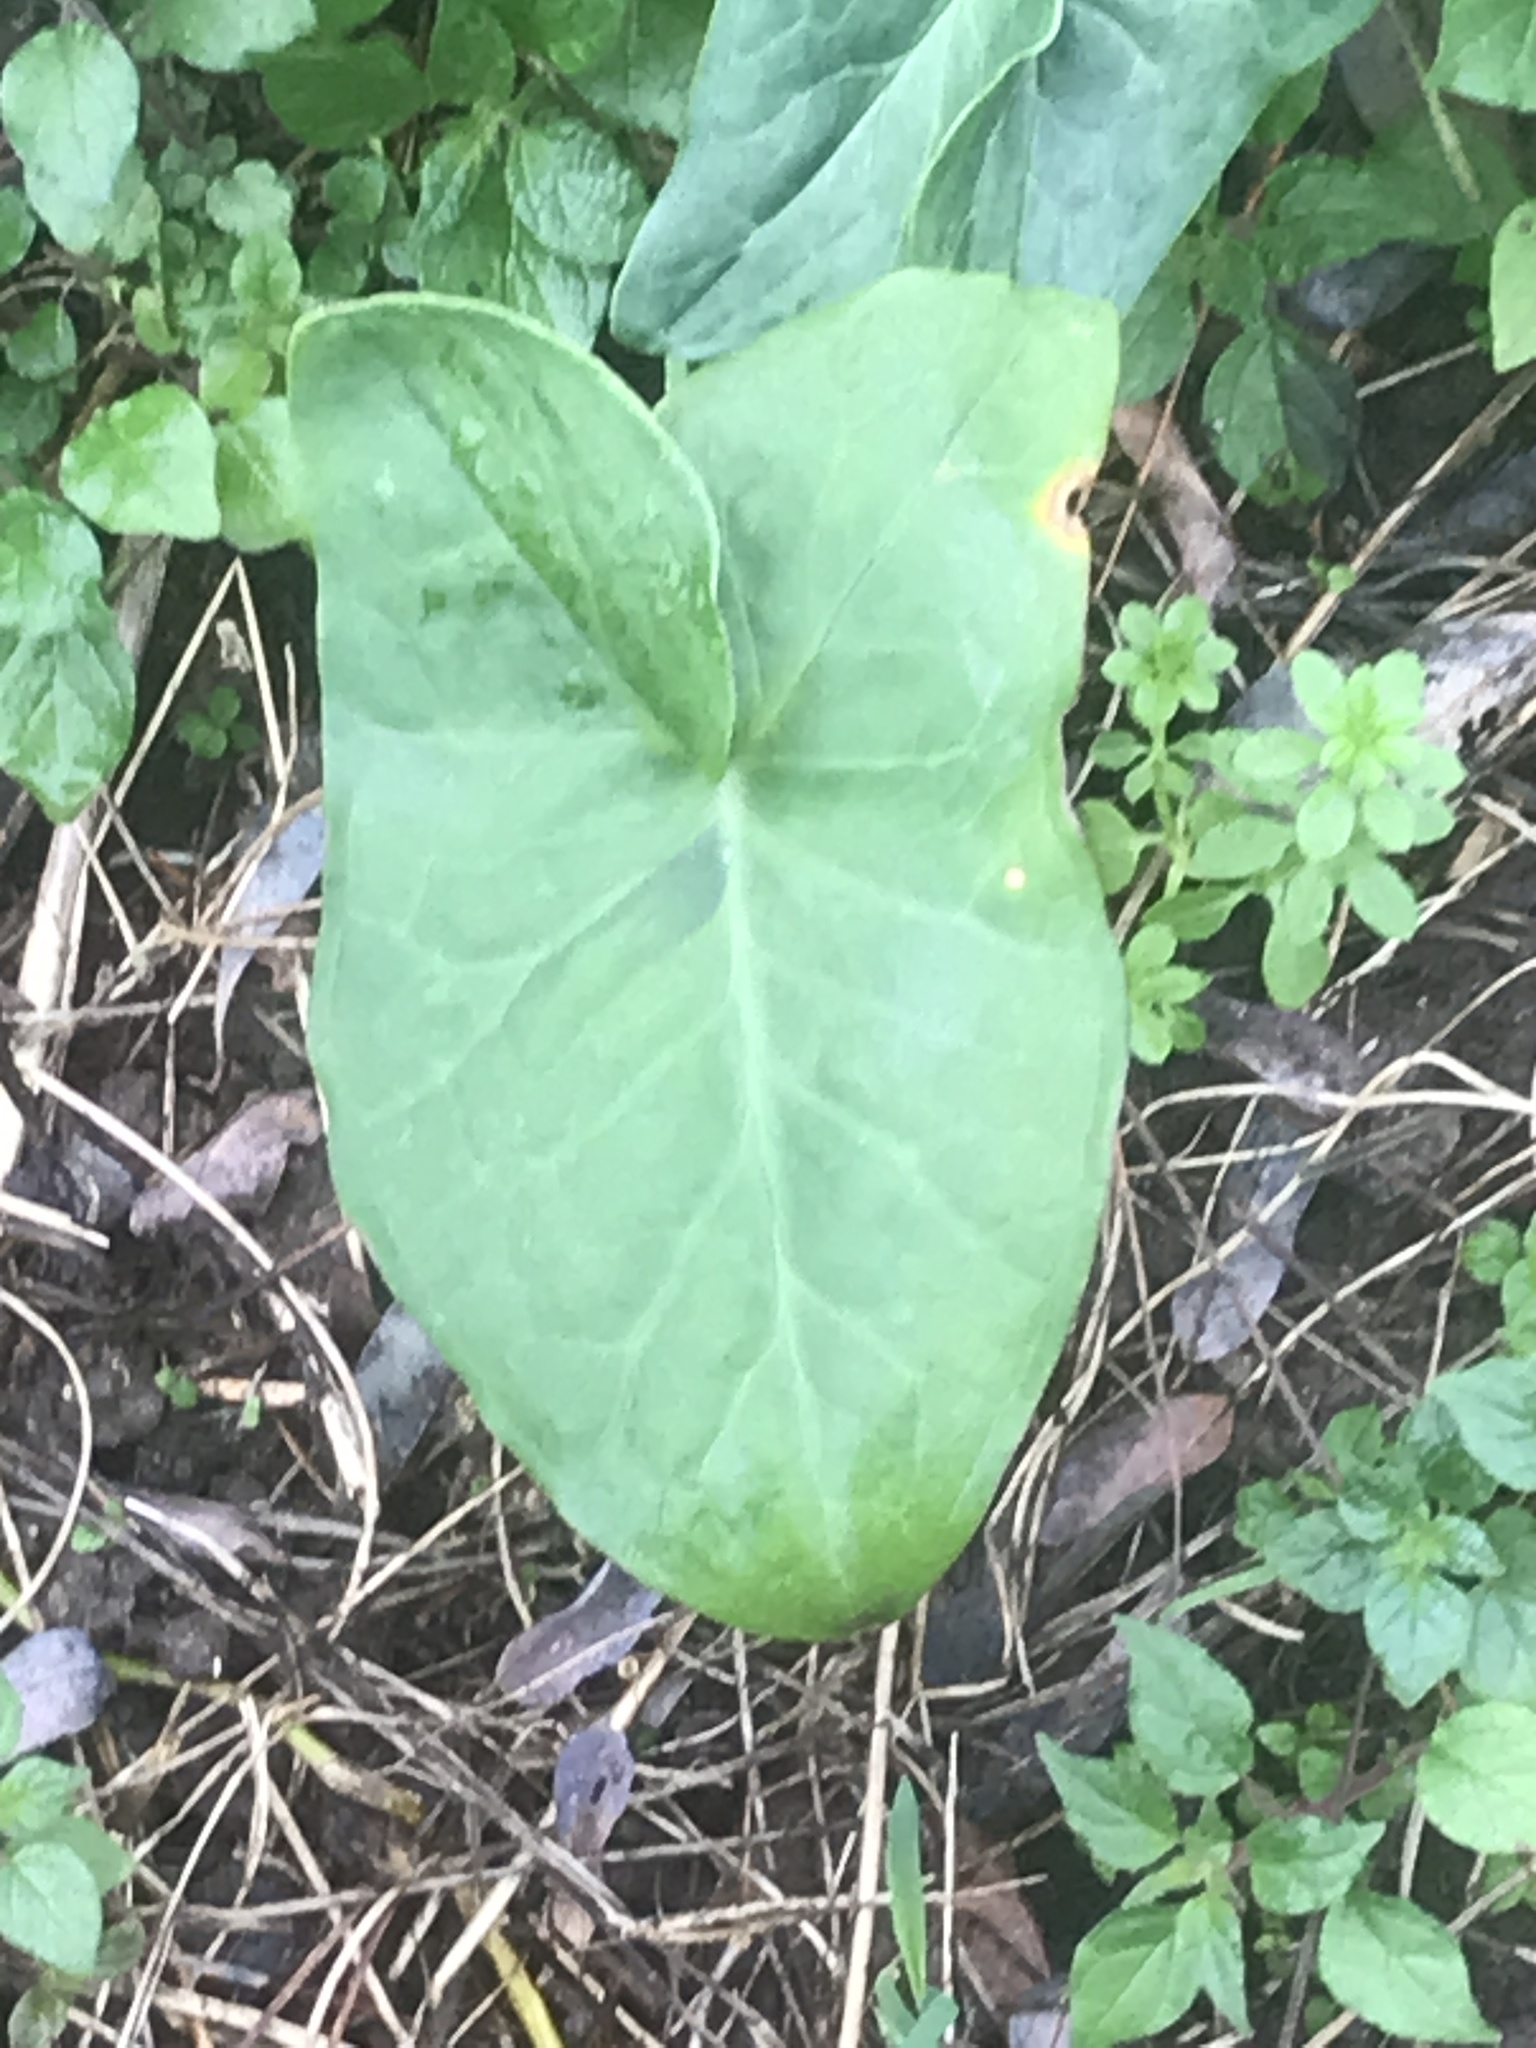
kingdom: Plantae
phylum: Tracheophyta
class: Liliopsida
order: Alismatales
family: Araceae
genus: Arum
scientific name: Arum italicum
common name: Italian lords-and-ladies
